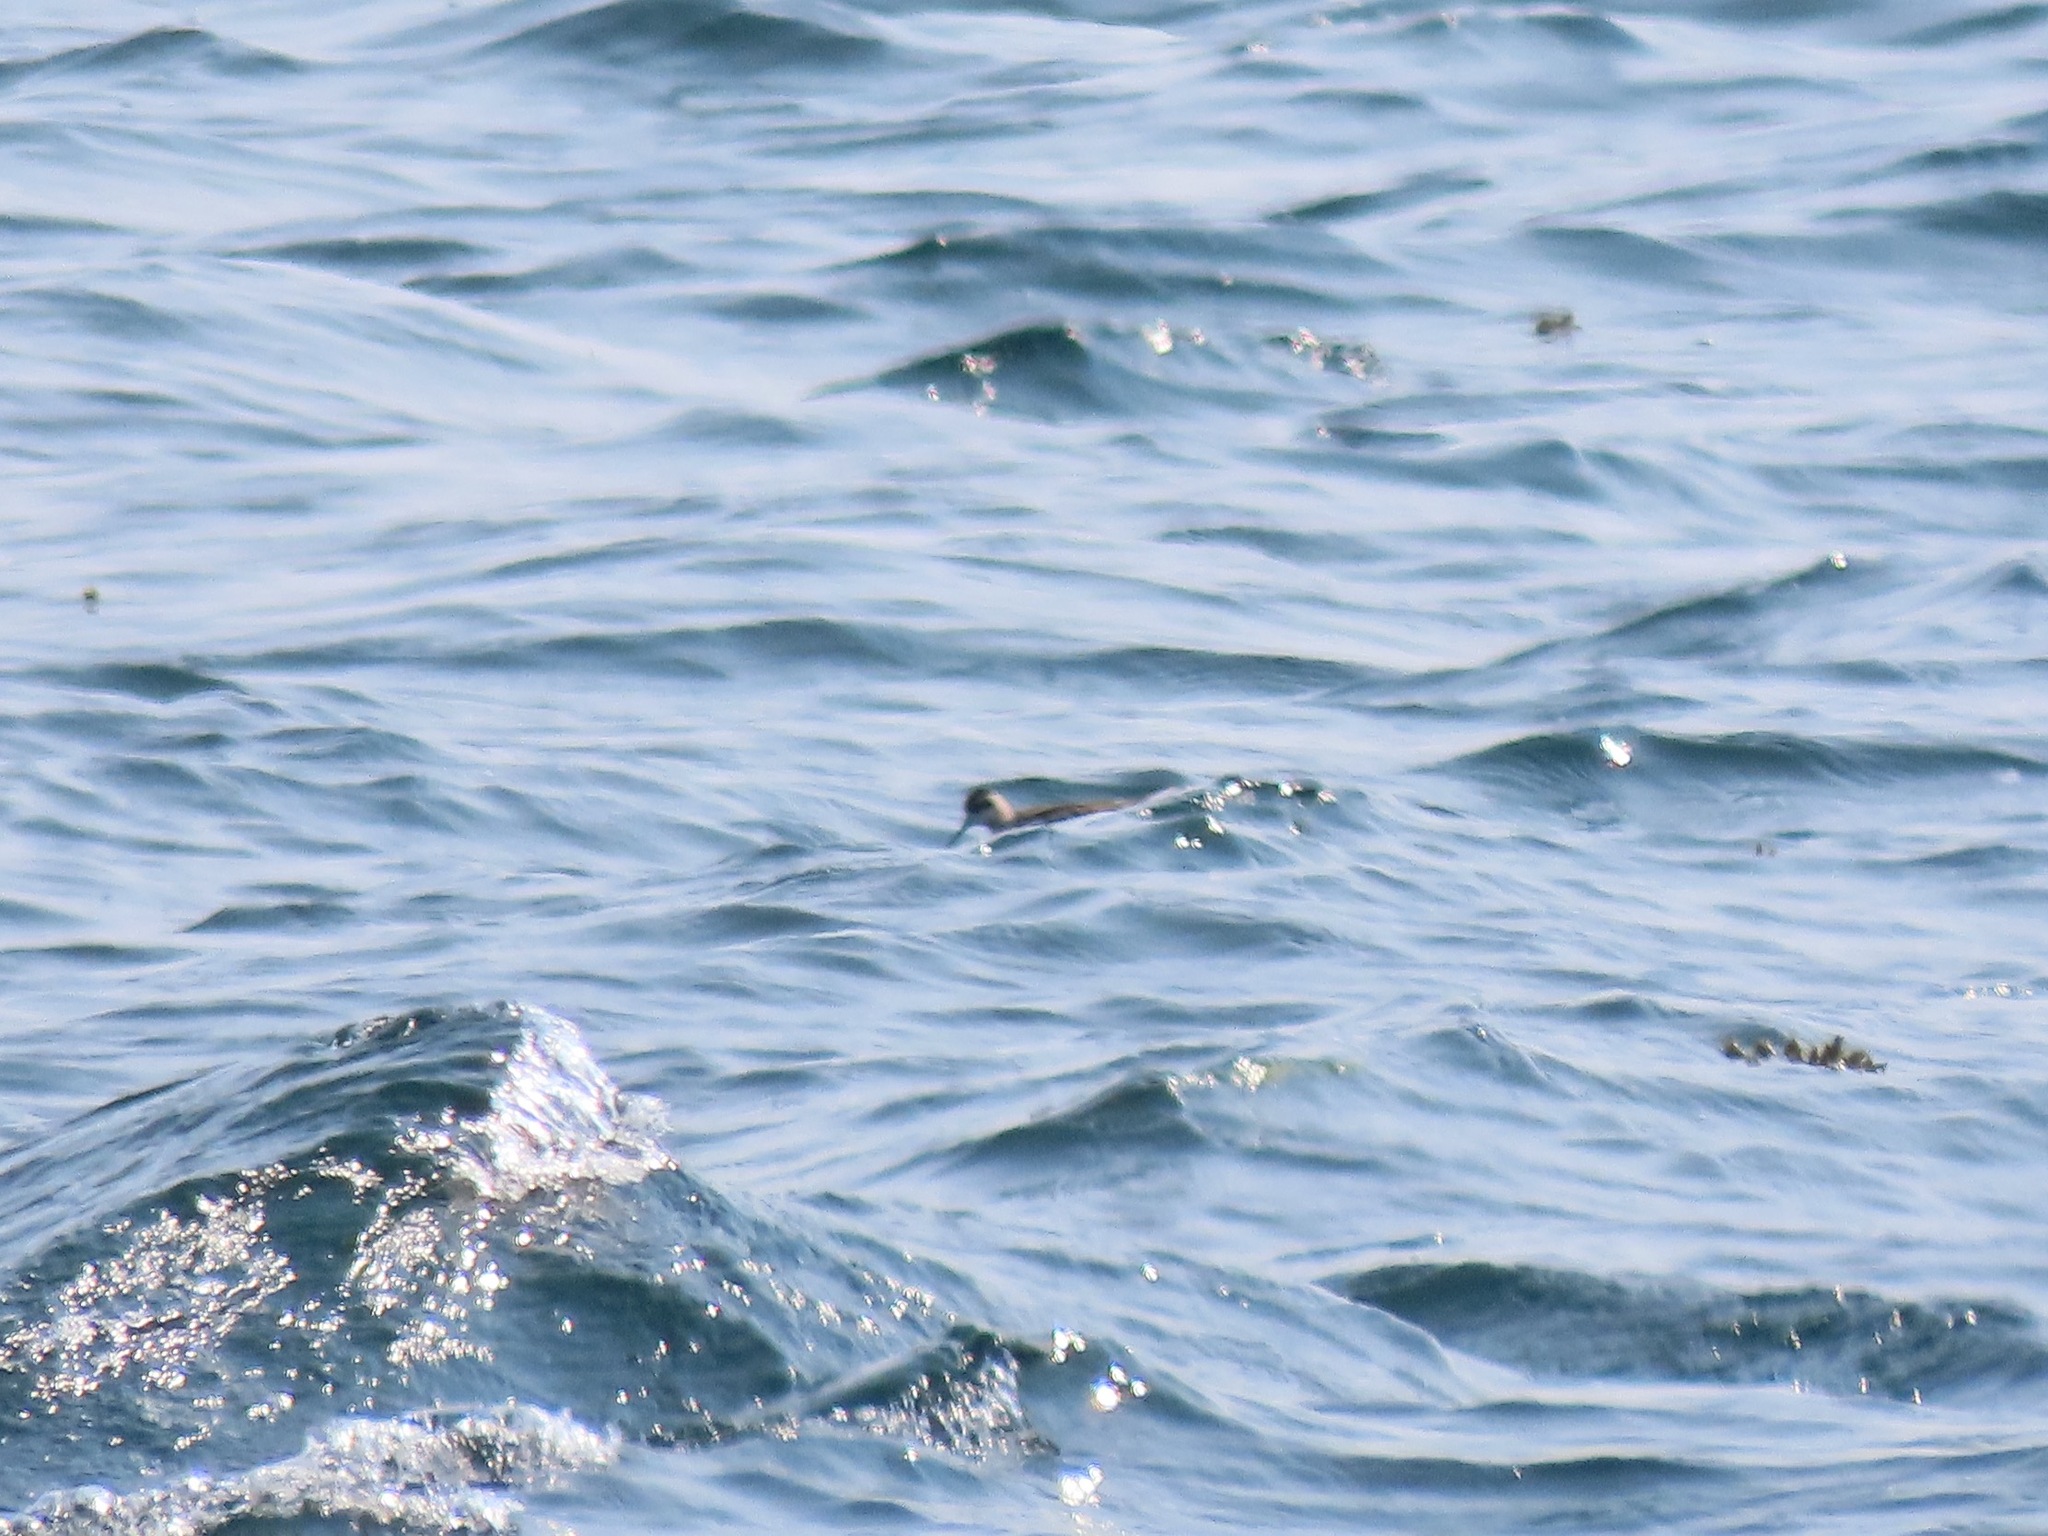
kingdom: Animalia
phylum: Chordata
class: Aves
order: Charadriiformes
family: Scolopacidae
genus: Phalaropus
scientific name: Phalaropus lobatus
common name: Red-necked phalarope
